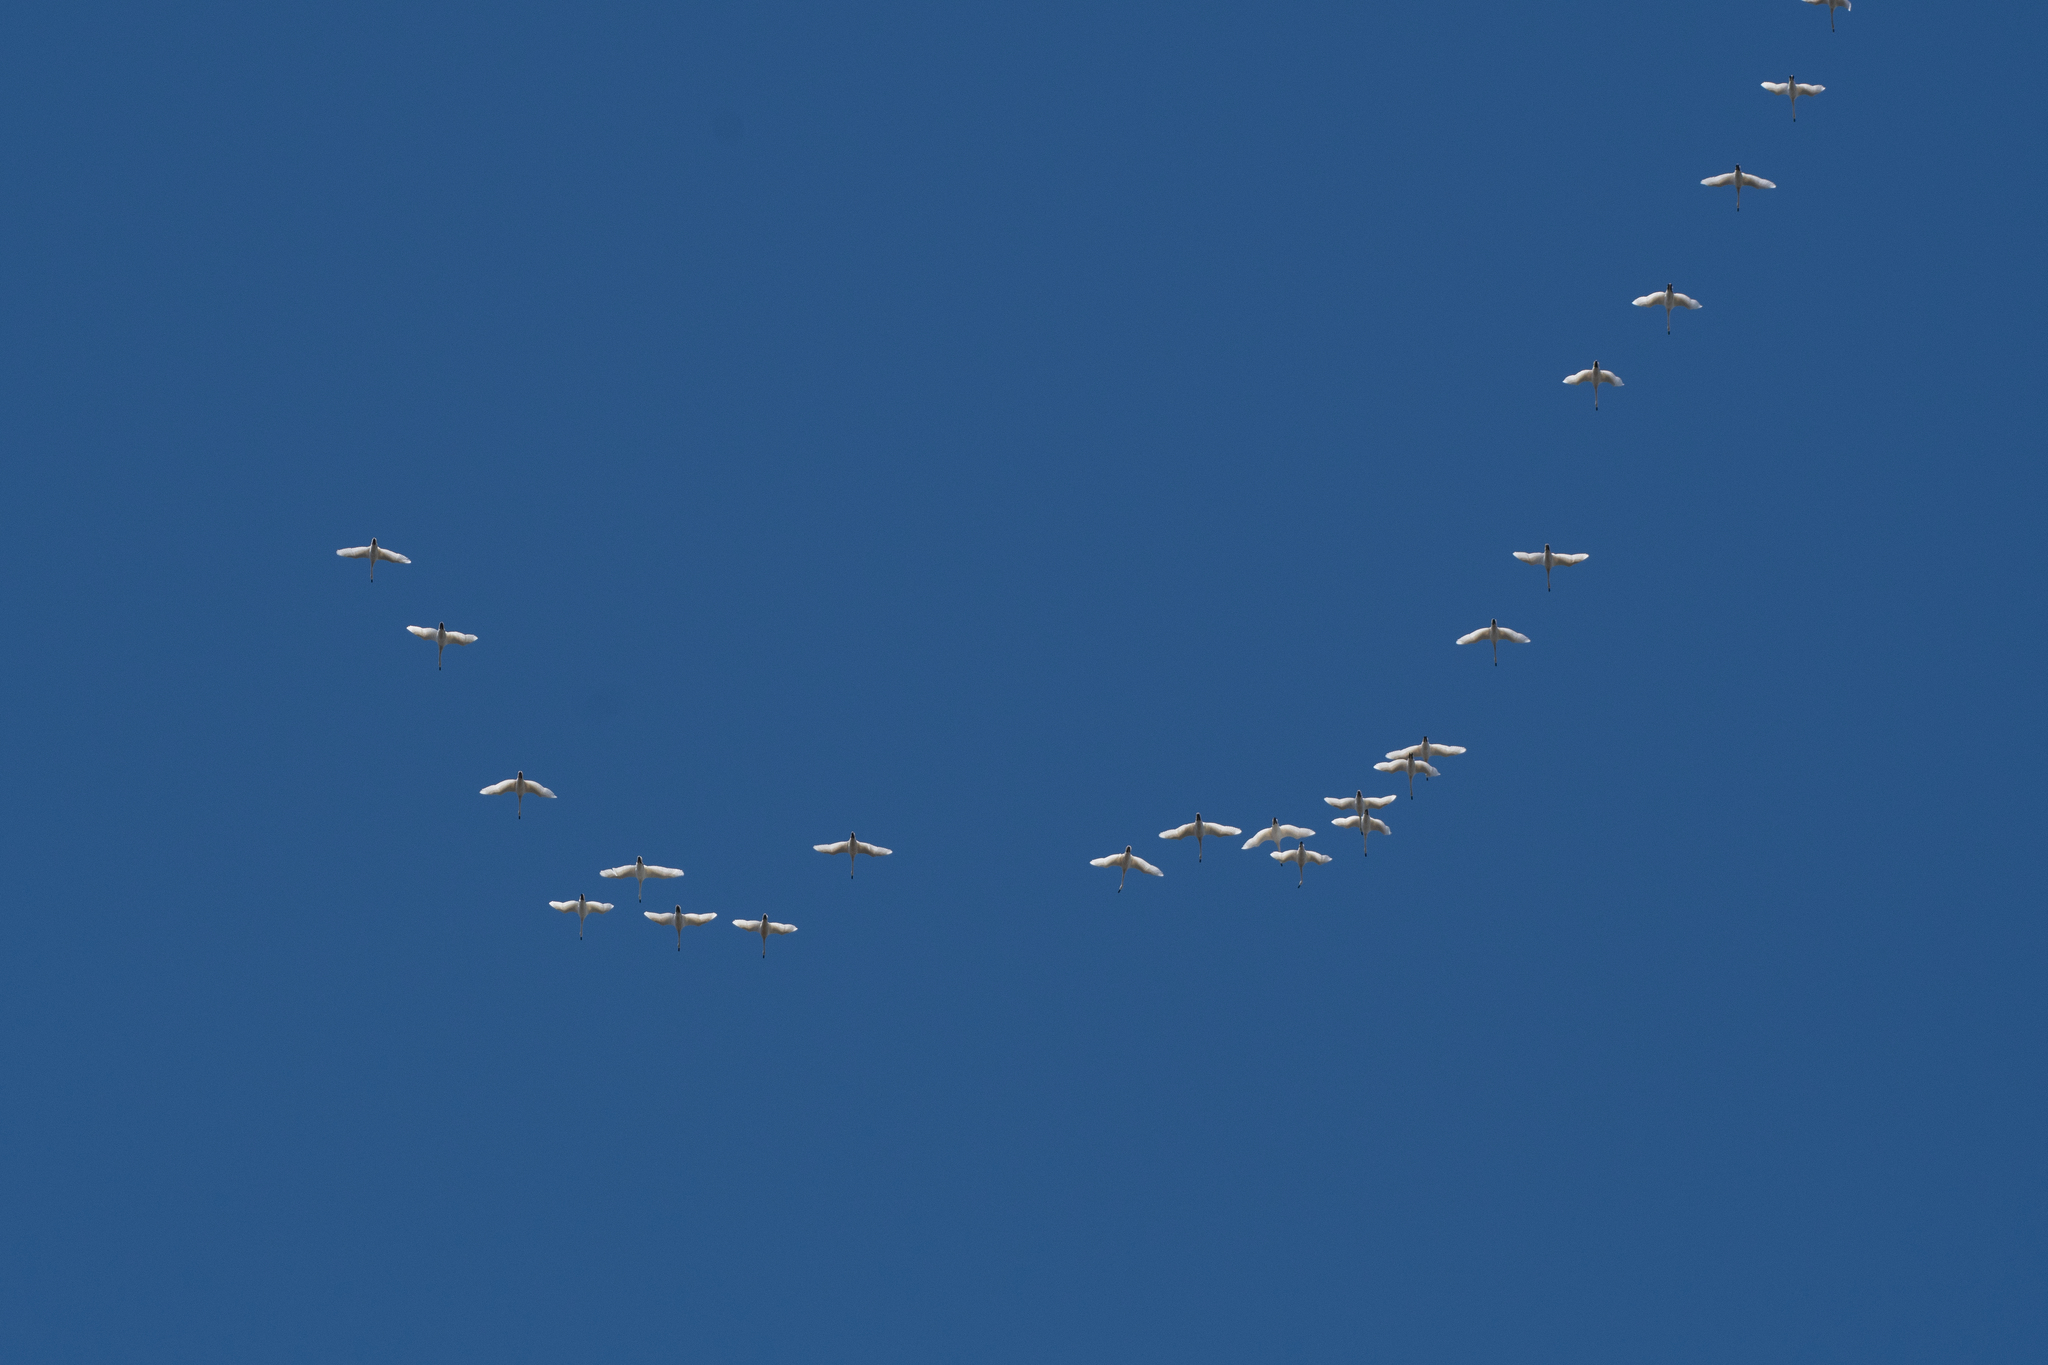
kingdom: Animalia
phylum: Chordata
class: Aves
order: Anseriformes
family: Anatidae
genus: Cygnus
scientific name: Cygnus columbianus
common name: Tundra swan
